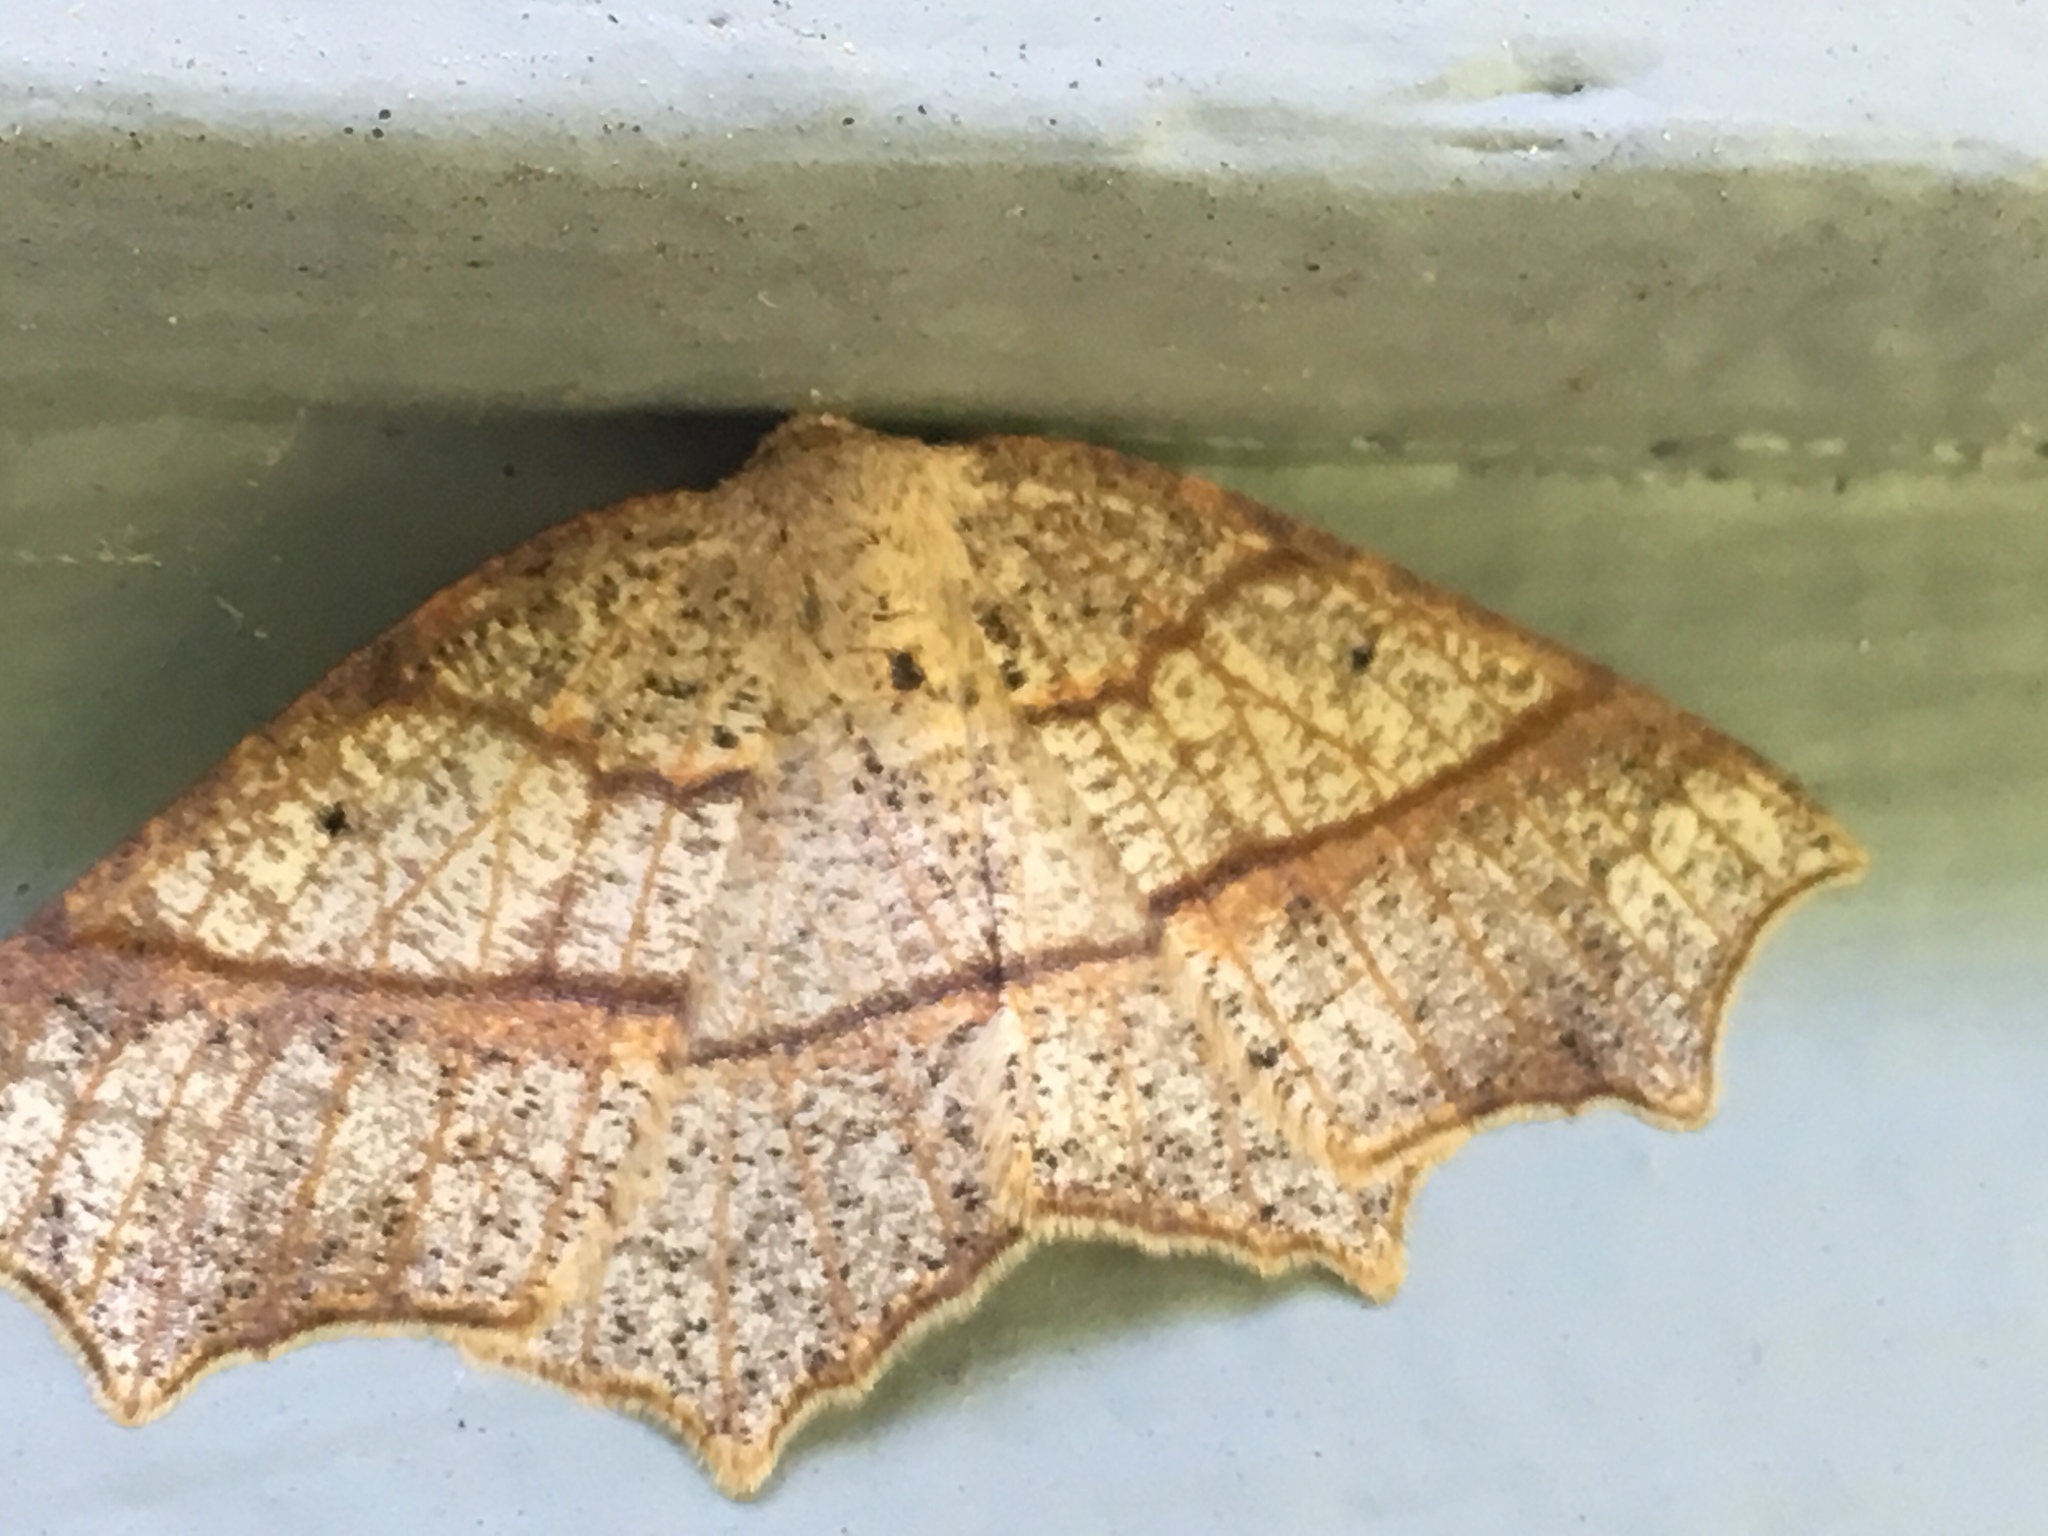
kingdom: Animalia
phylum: Arthropoda
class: Insecta
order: Lepidoptera
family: Geometridae
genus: Besma
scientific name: Besma quercivoraria
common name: Oak besma
